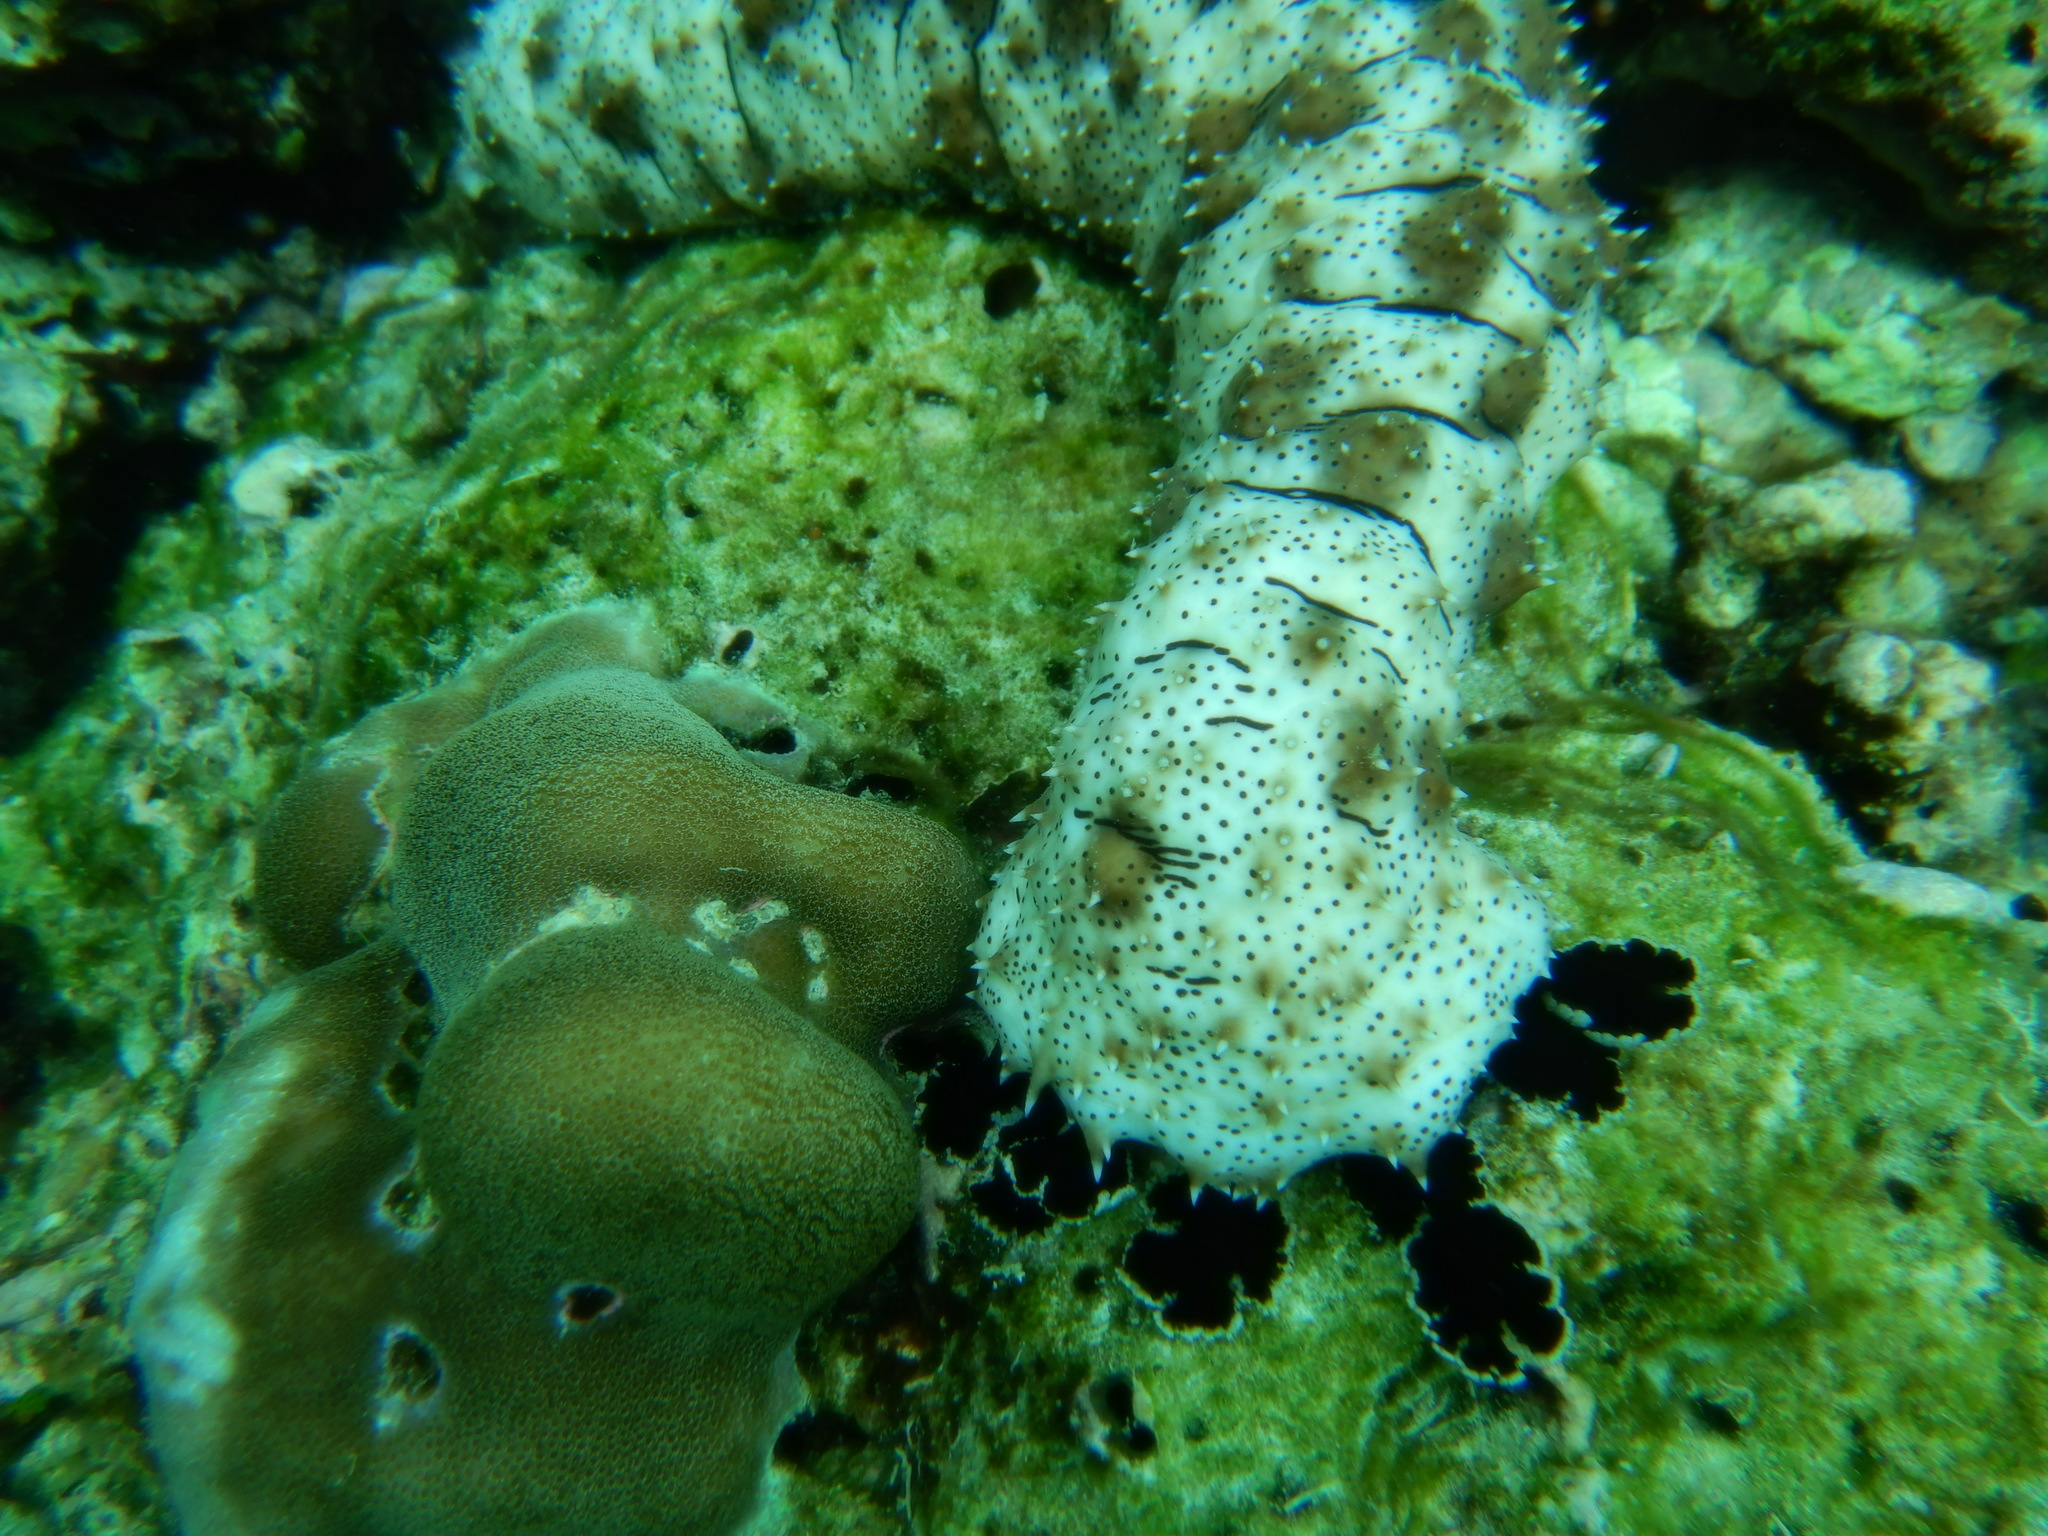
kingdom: Animalia
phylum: Echinodermata
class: Holothuroidea
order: Holothuriida
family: Holothuriidae
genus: Pearsonothuria
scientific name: Pearsonothuria graeffei
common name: Blackspotted sea cucumber
